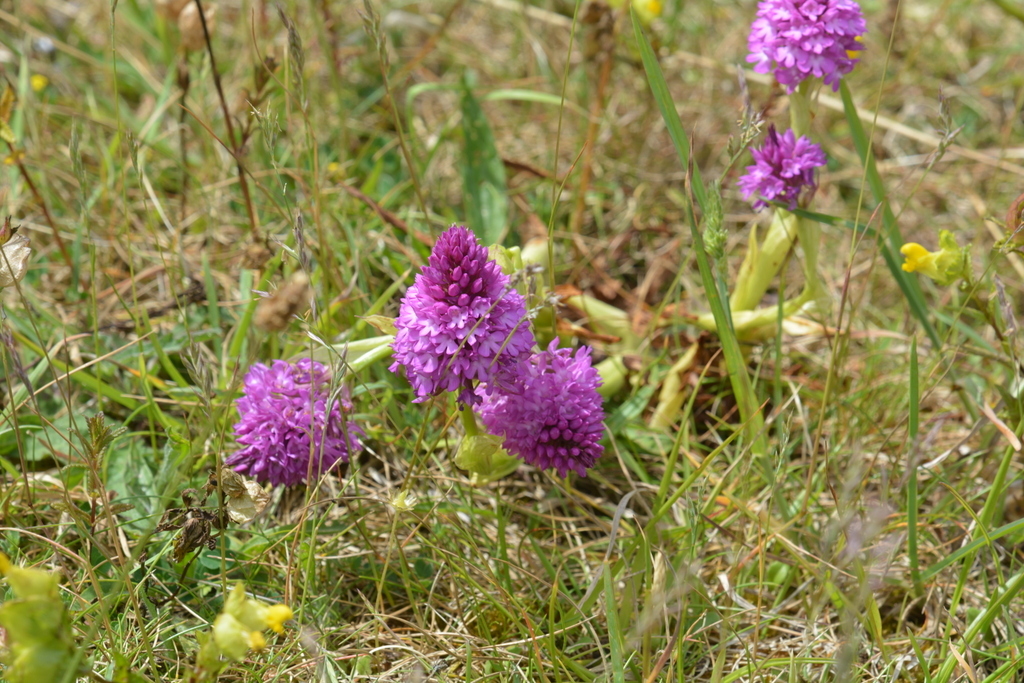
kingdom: Plantae
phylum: Tracheophyta
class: Liliopsida
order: Asparagales
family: Orchidaceae
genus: Anacamptis
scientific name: Anacamptis pyramidalis
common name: Pyramidal orchid
